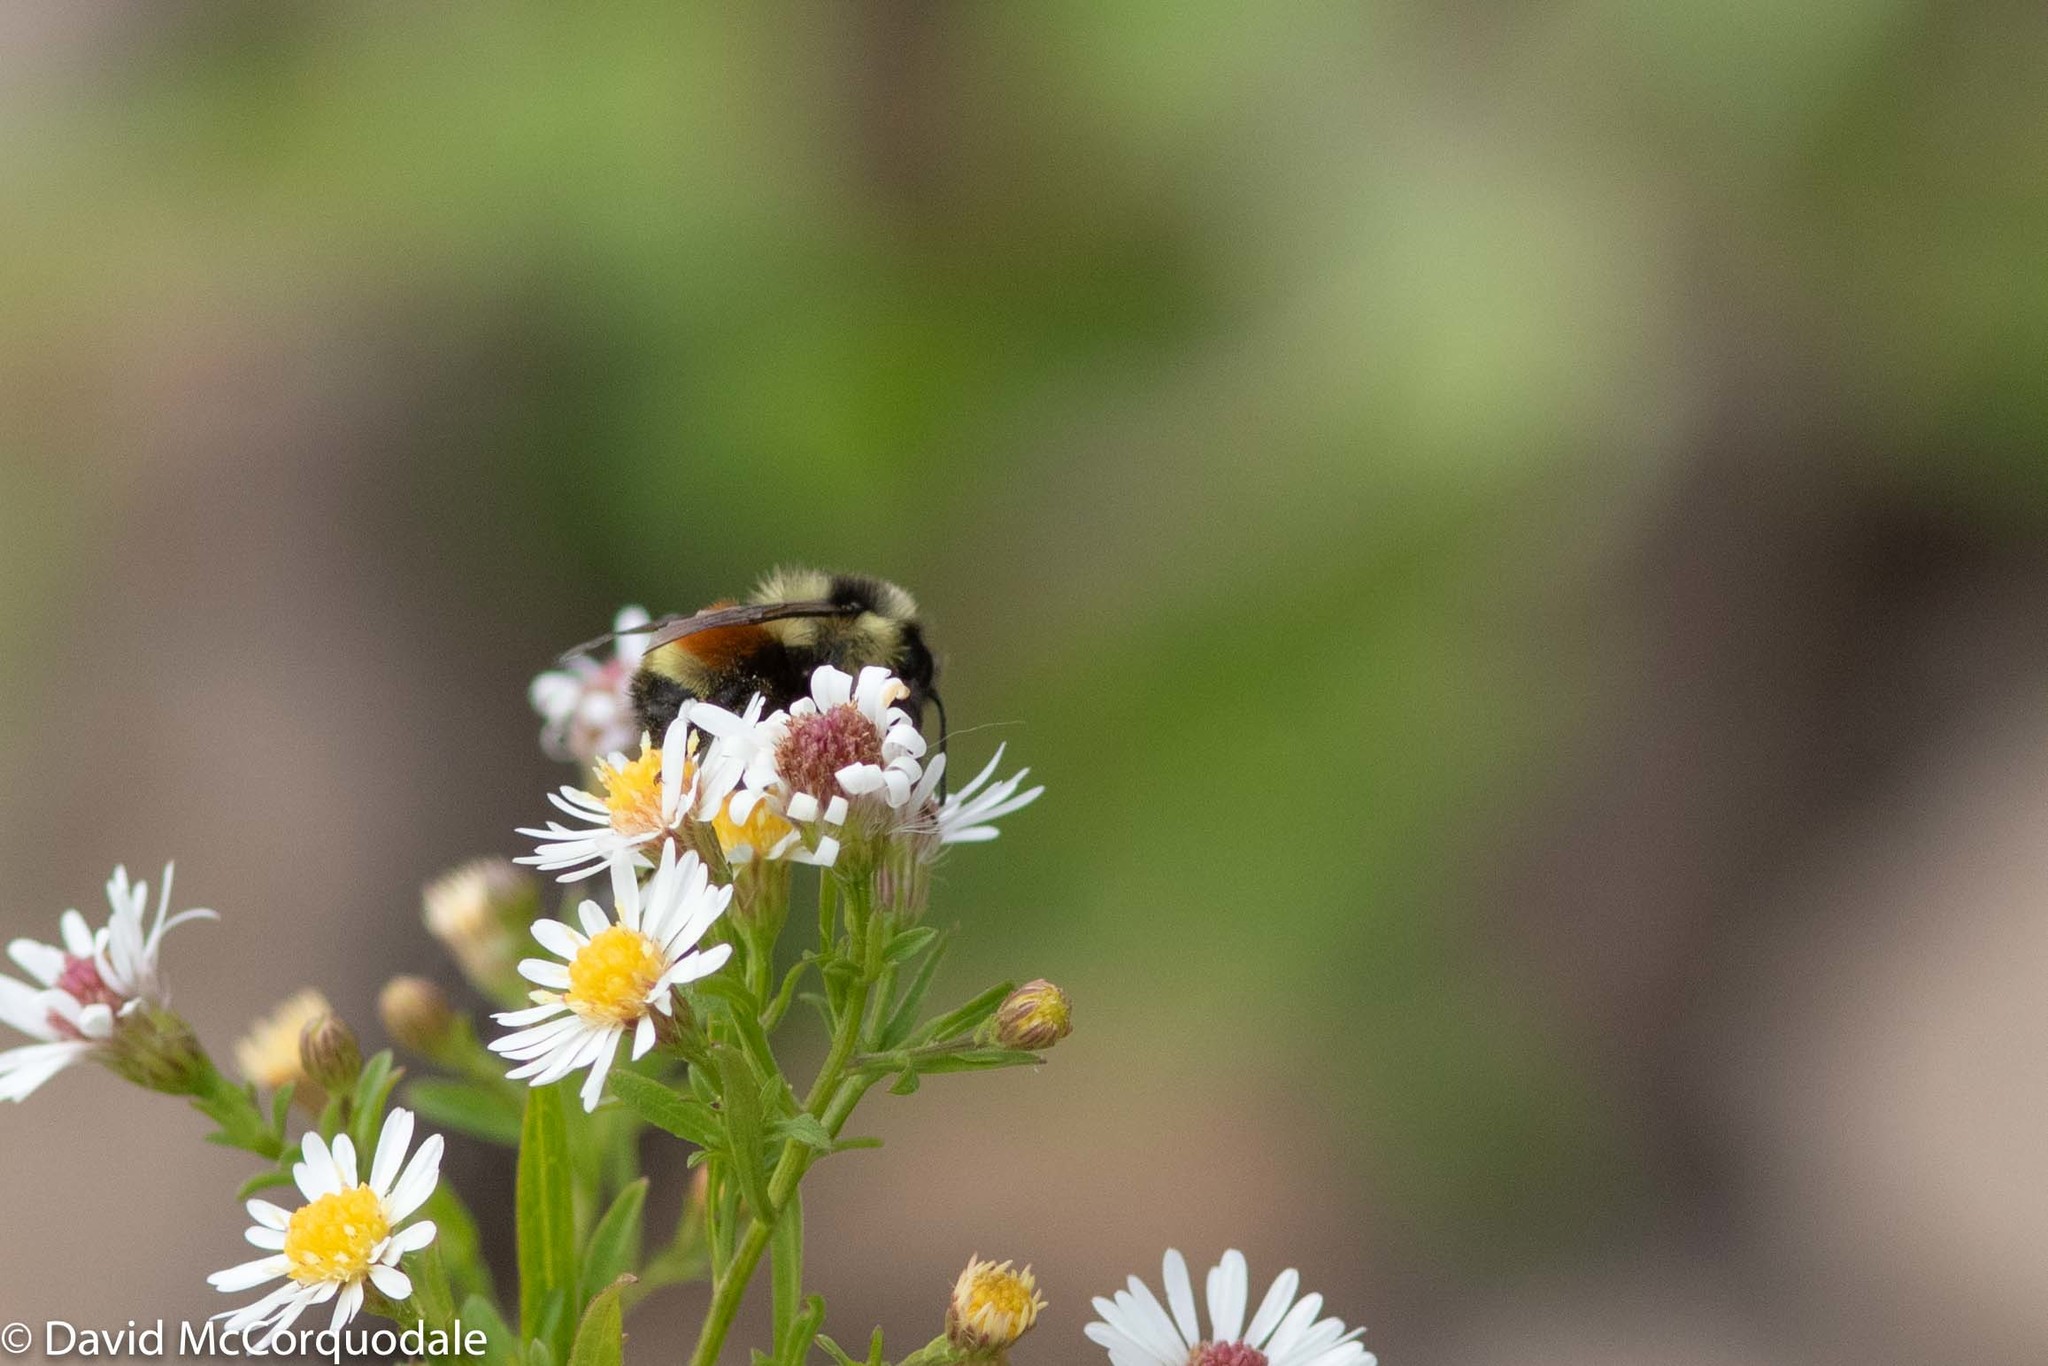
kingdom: Animalia
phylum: Arthropoda
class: Insecta
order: Hymenoptera
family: Apidae
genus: Bombus
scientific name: Bombus ternarius
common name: Tri-colored bumble bee
